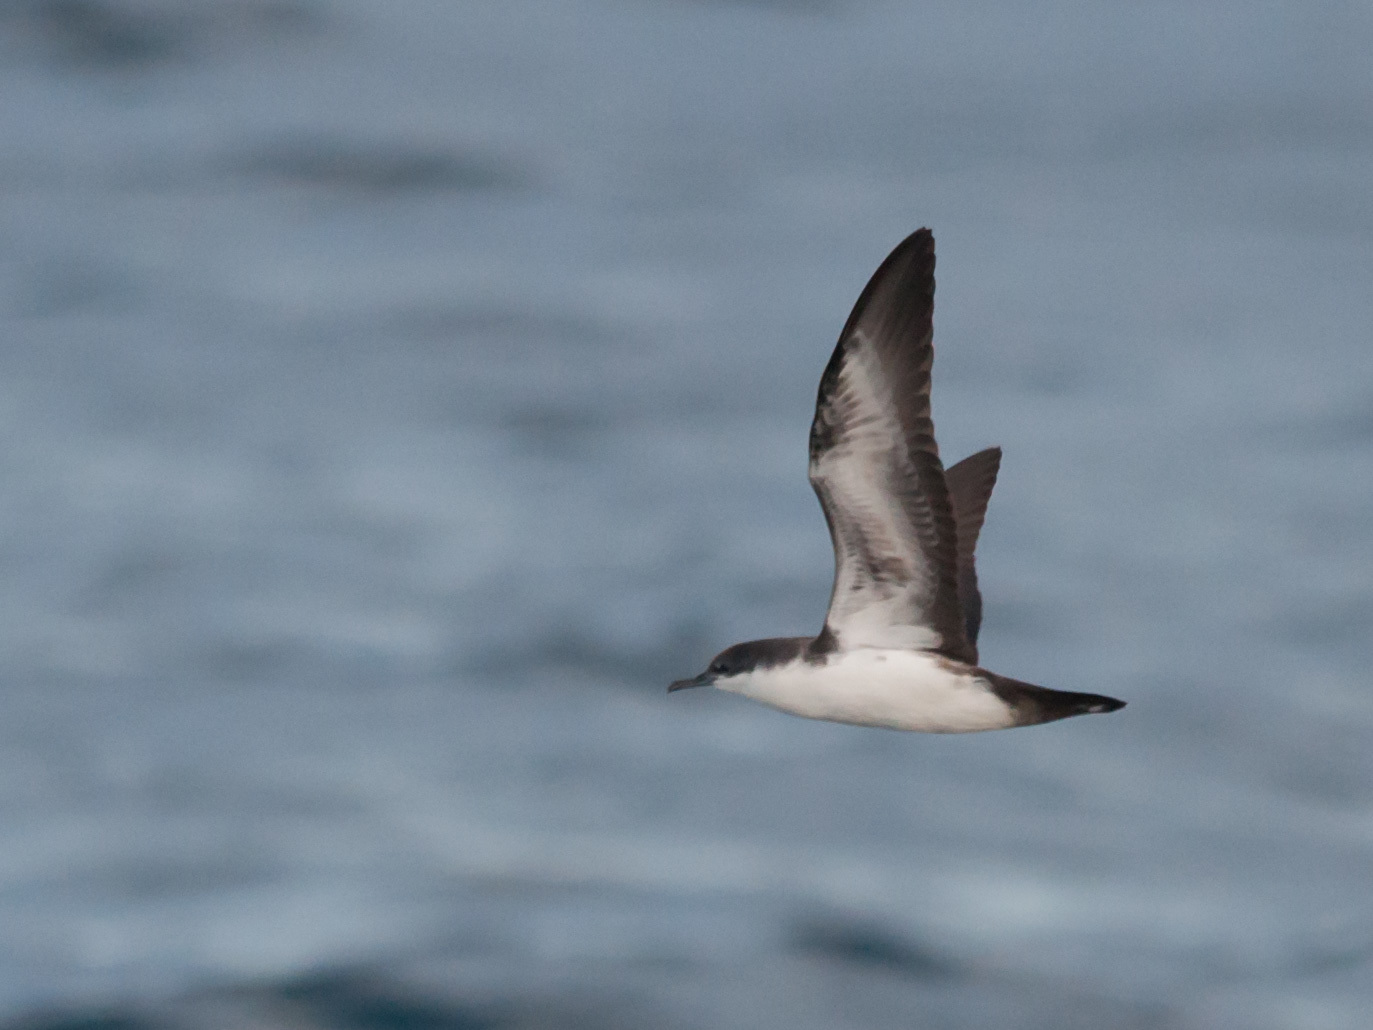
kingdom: Animalia
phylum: Chordata
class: Aves
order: Procellariiformes
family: Procellariidae
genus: Puffinus
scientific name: Puffinus subalaris
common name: Galapagos shearwater
